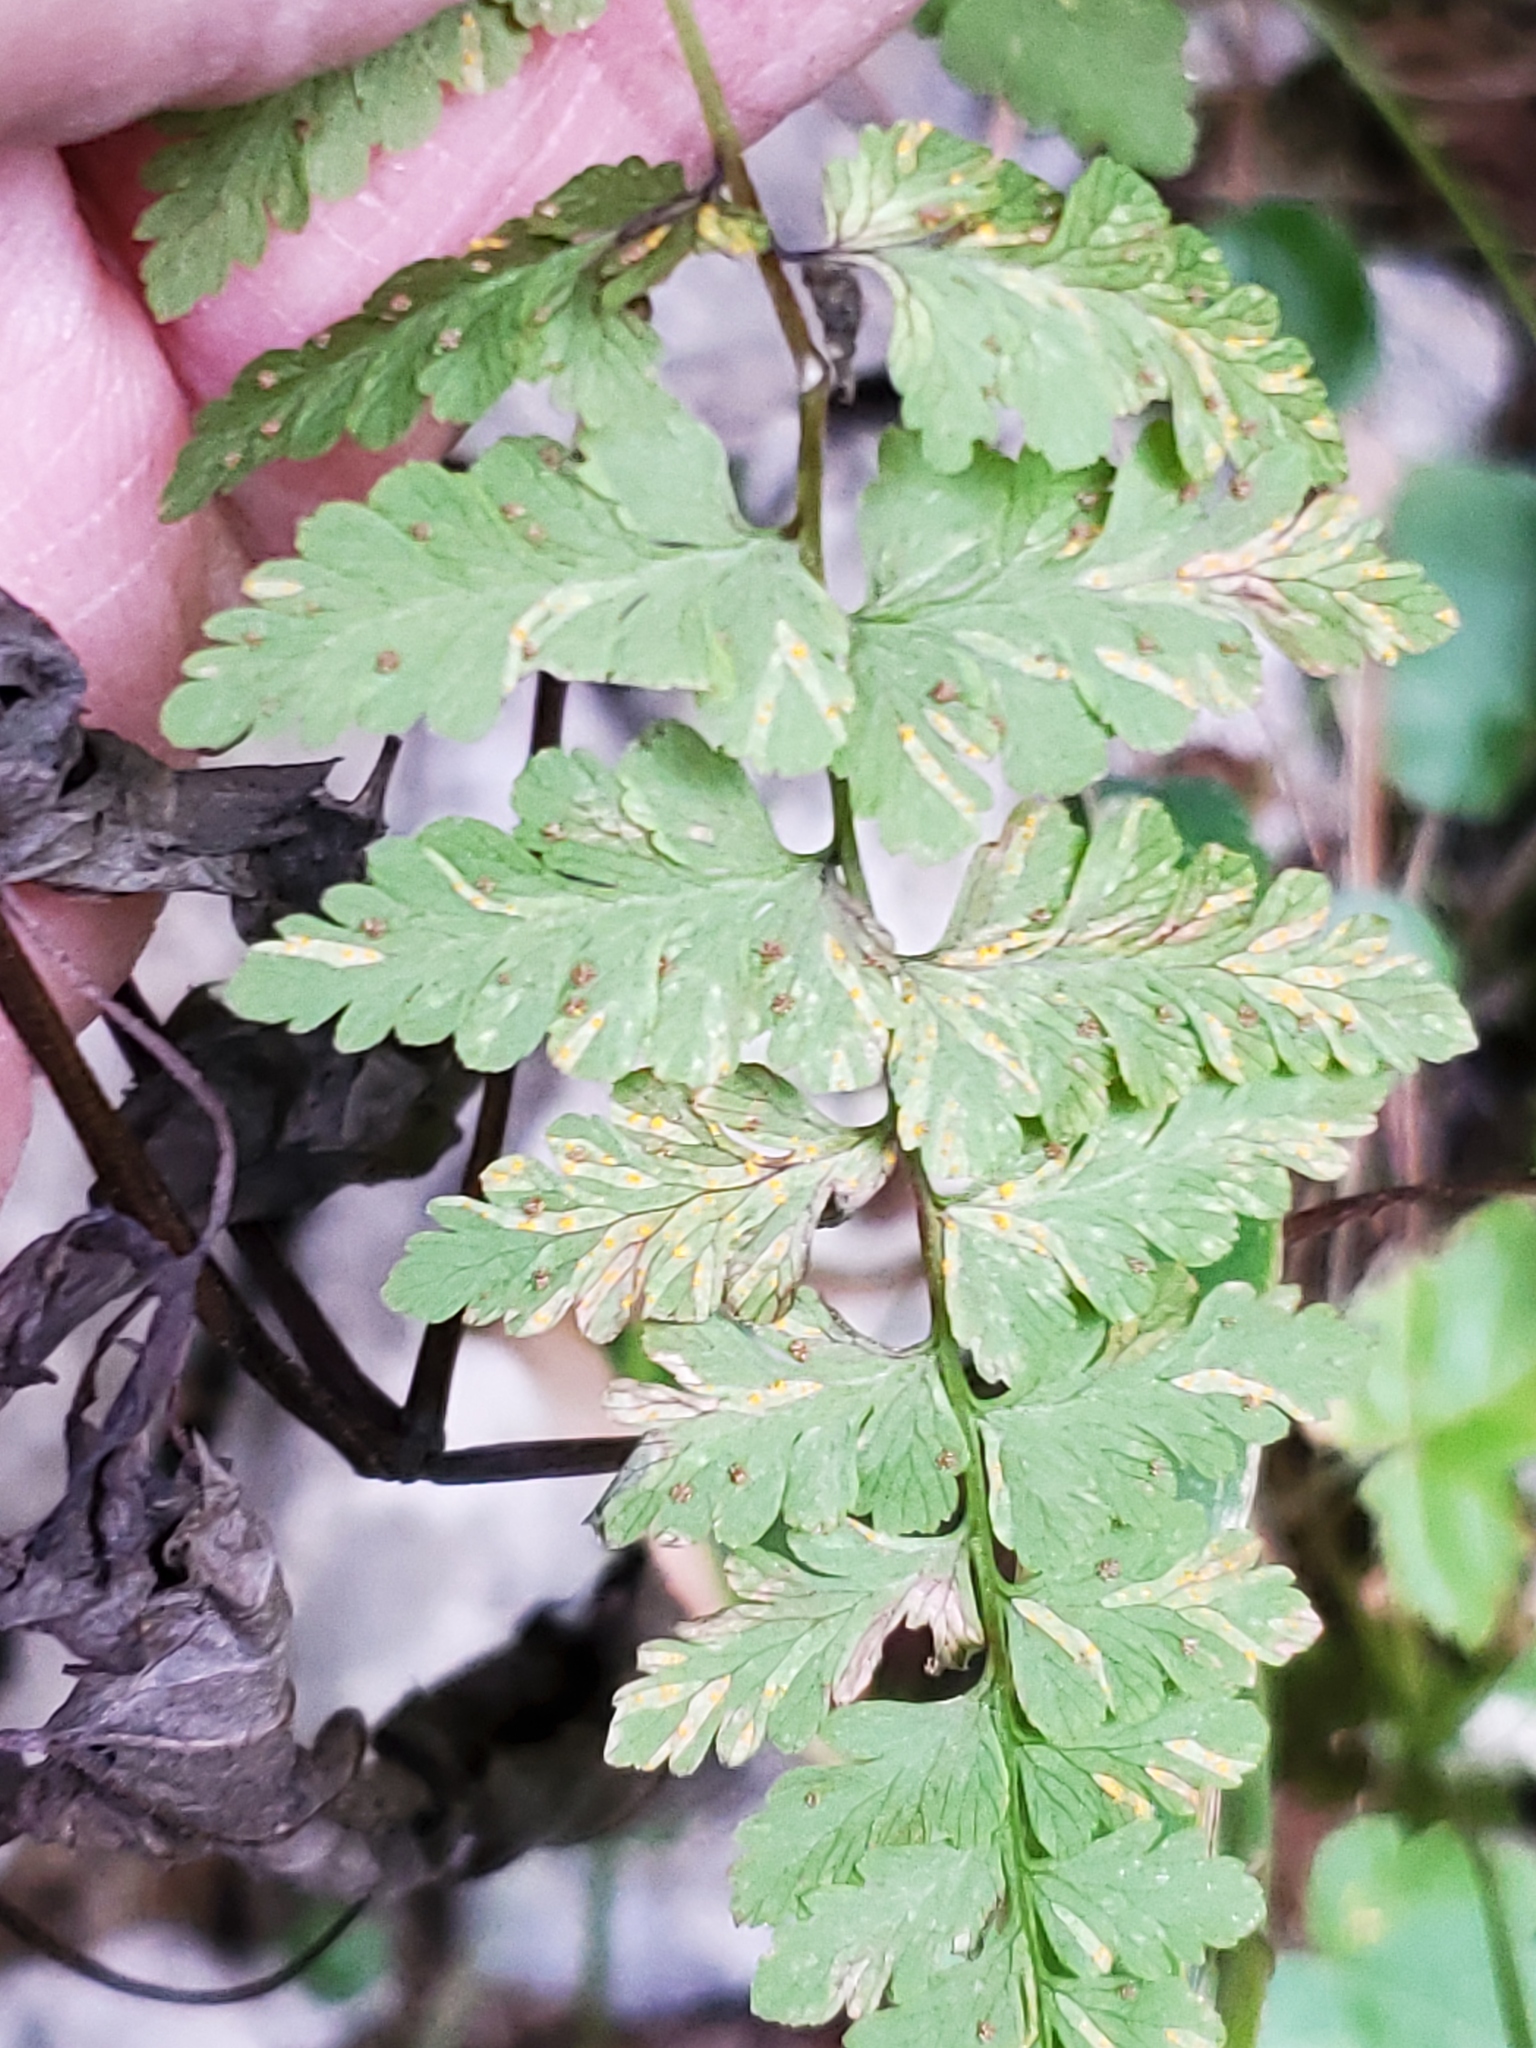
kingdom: Plantae
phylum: Tracheophyta
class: Polypodiopsida
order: Polypodiales
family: Cystopteridaceae
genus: Cystopteris
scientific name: Cystopteris fragilis
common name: Brittle bladder fern
